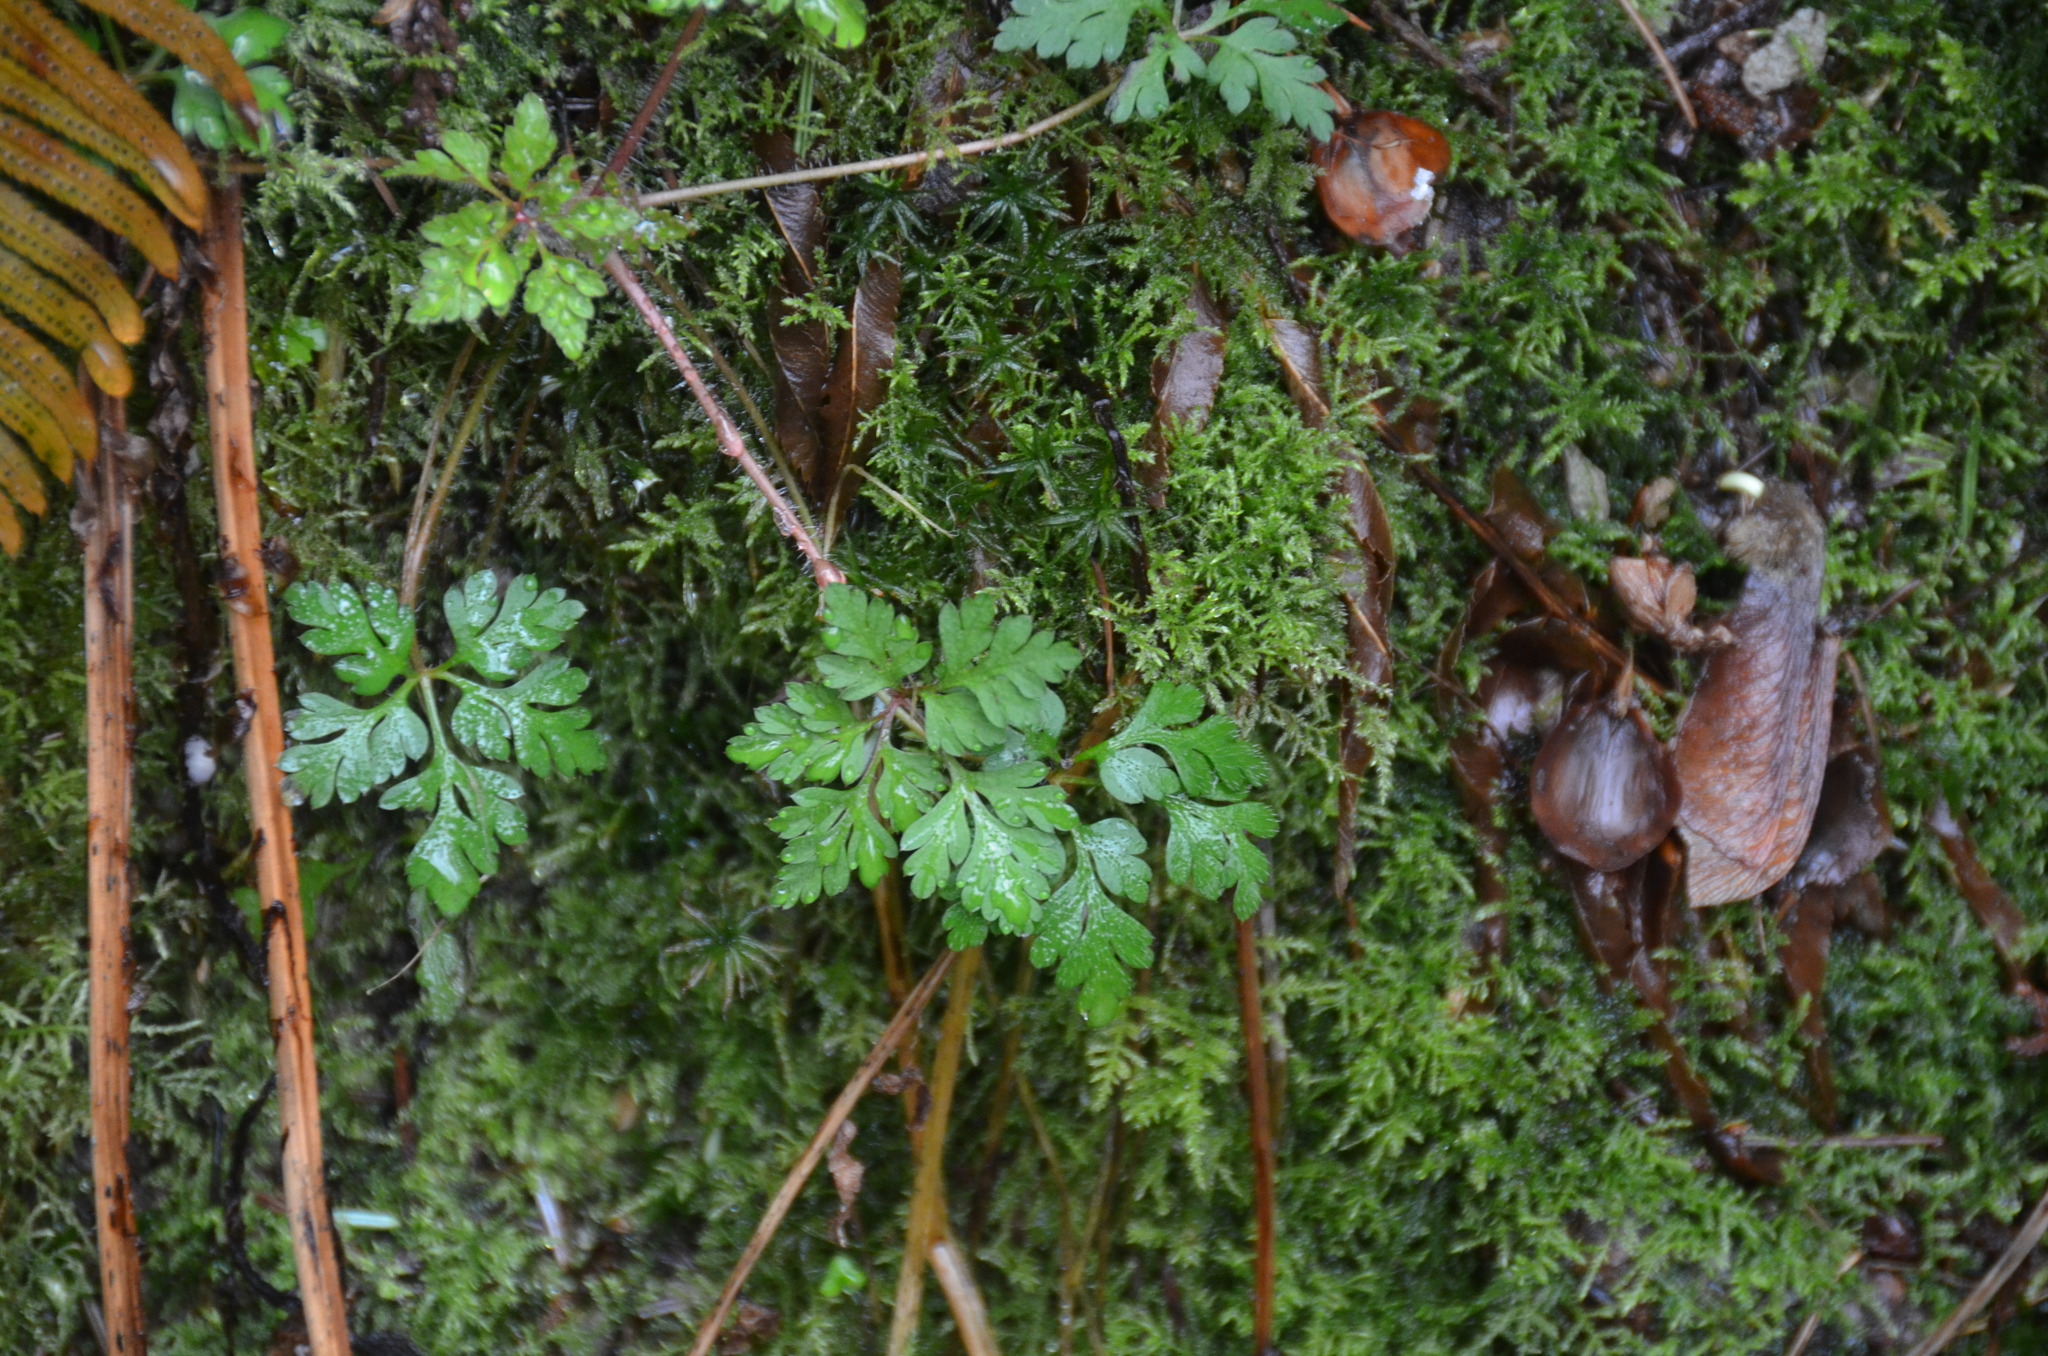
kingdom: Plantae
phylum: Tracheophyta
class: Magnoliopsida
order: Geraniales
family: Geraniaceae
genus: Geranium
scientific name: Geranium robertianum
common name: Herb-robert
